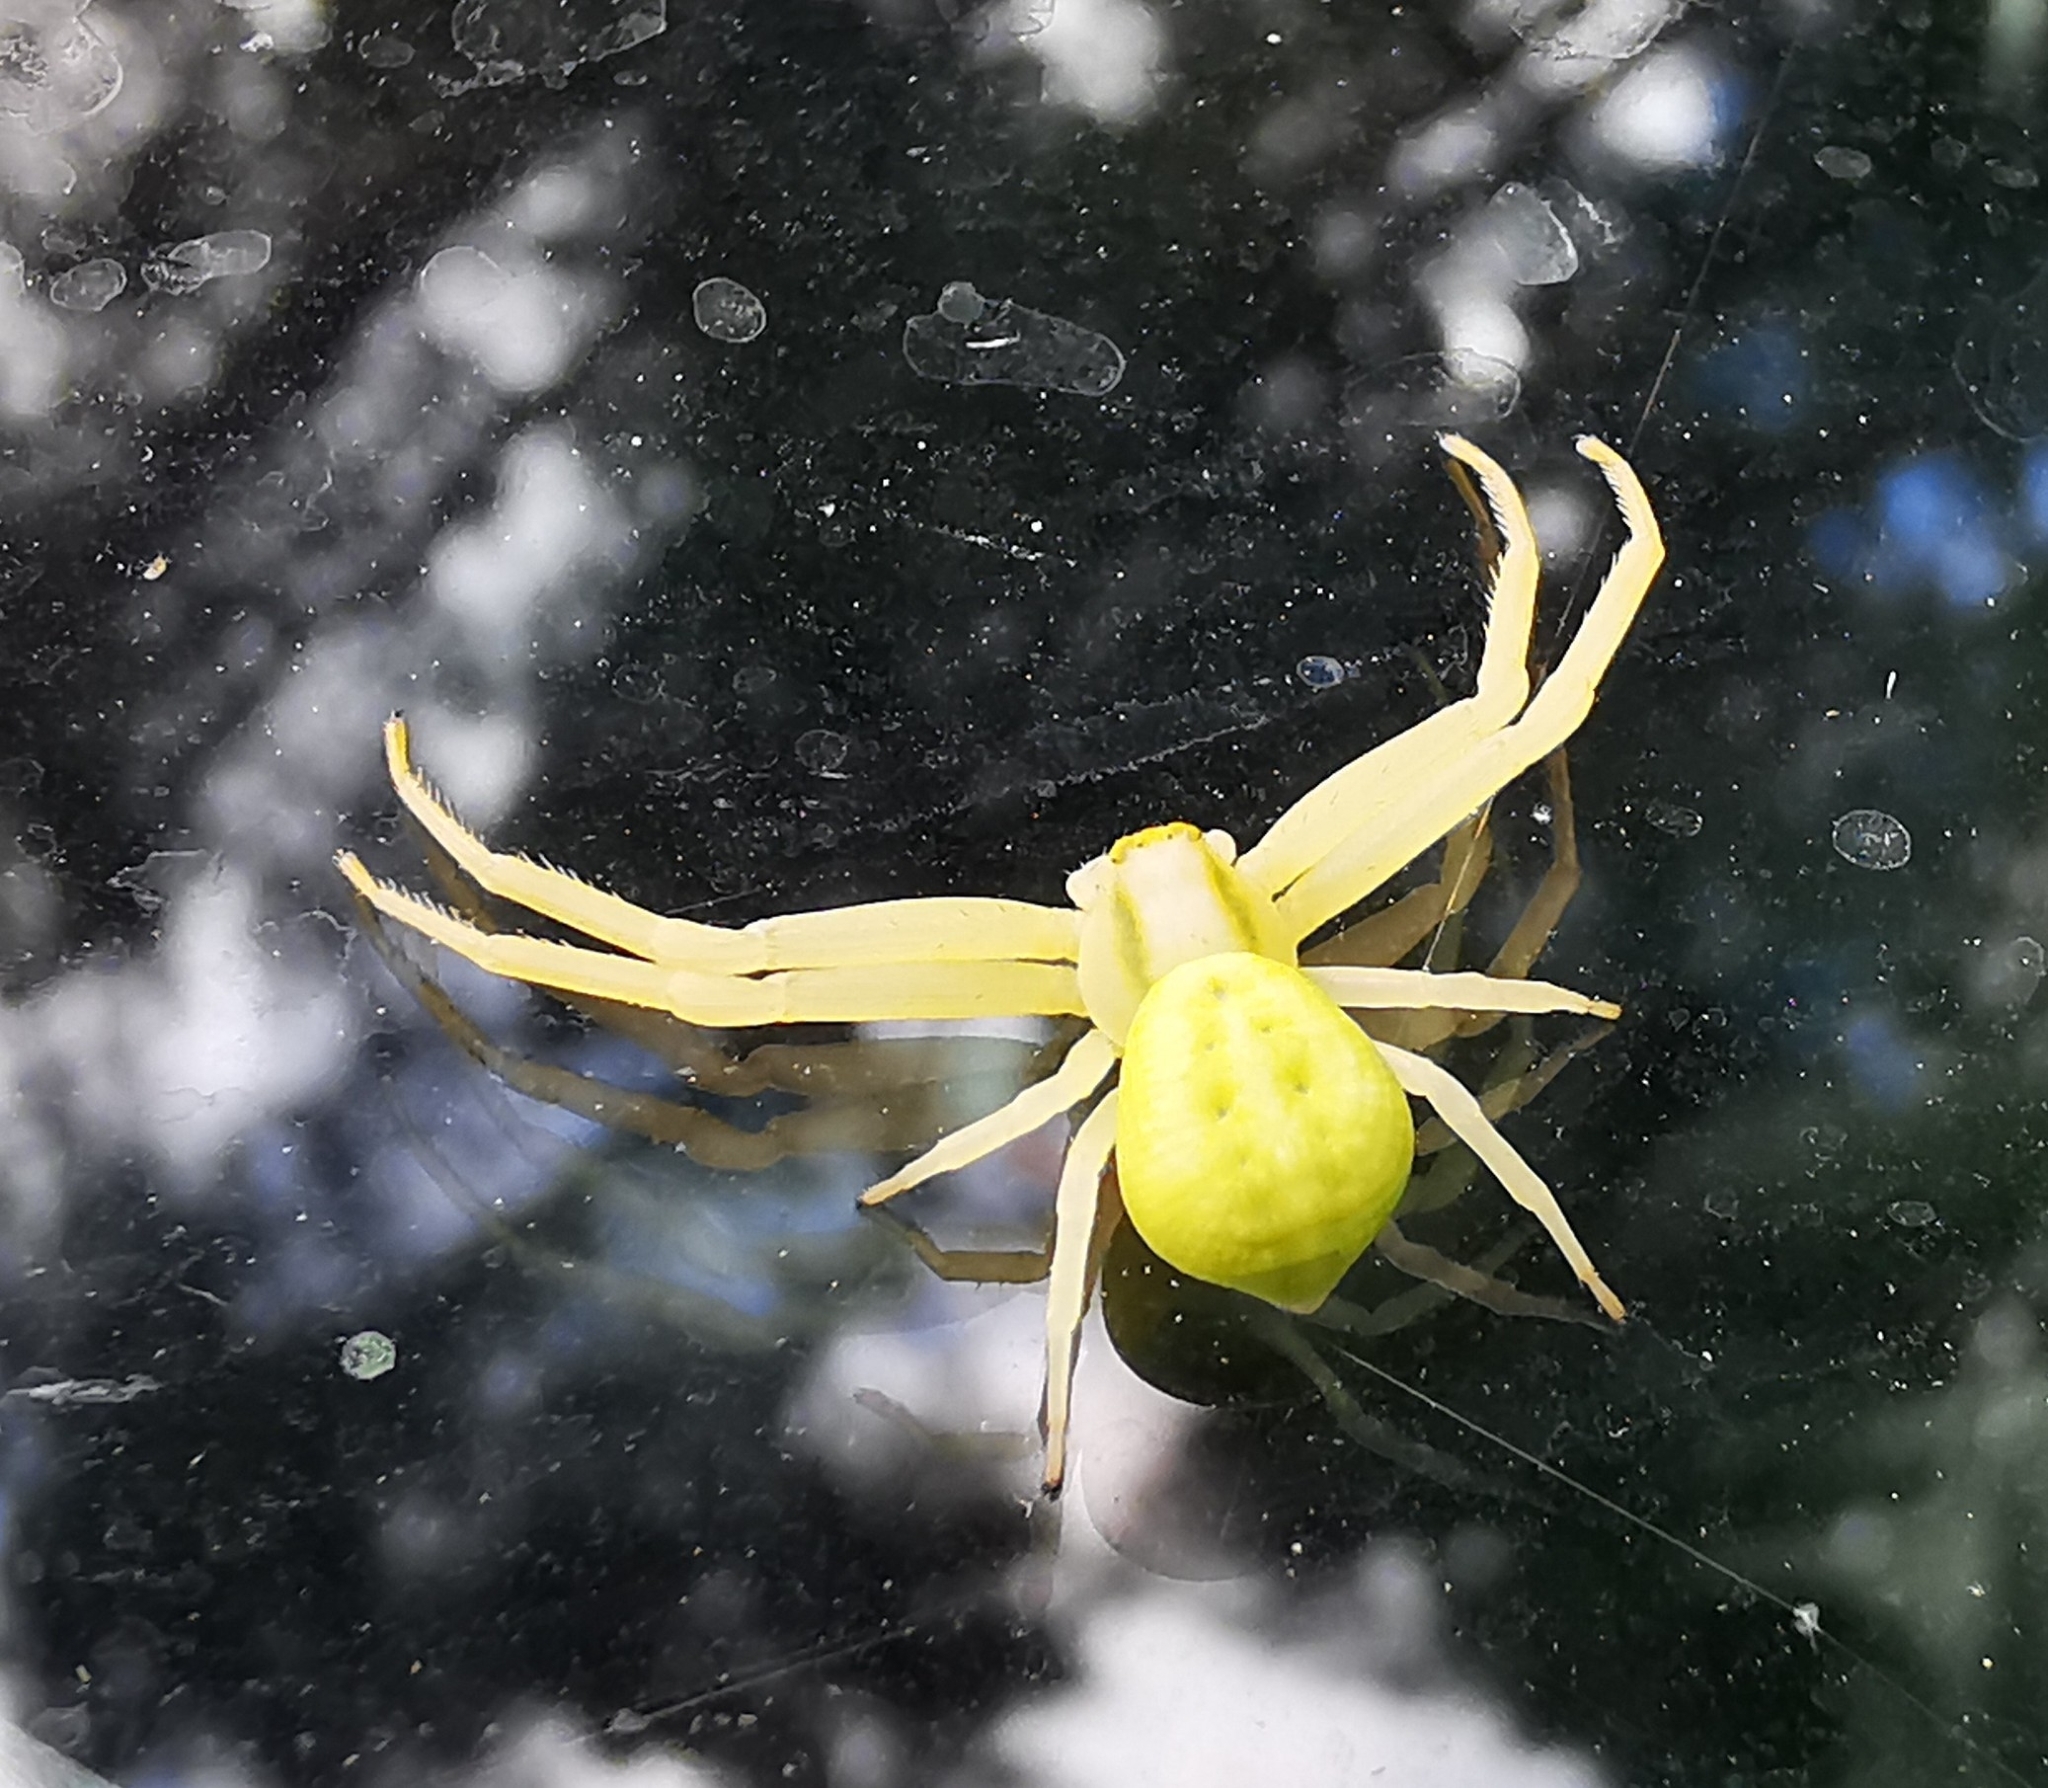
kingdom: Animalia
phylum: Arthropoda
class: Arachnida
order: Araneae
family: Thomisidae
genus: Misumena
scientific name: Misumena vatia
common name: Goldenrod crab spider
